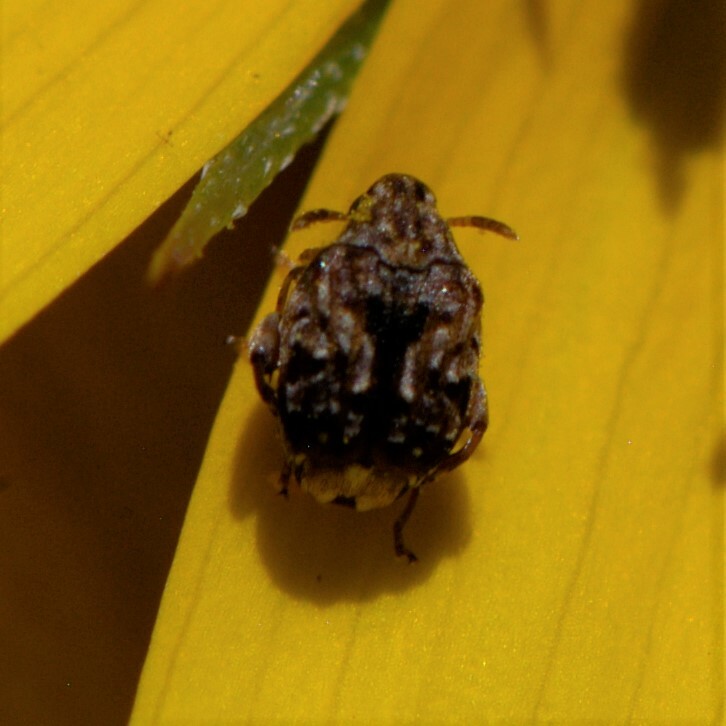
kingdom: Animalia
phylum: Arthropoda
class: Insecta
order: Coleoptera
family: Chrysomelidae
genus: Gibbobruchus
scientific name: Gibbobruchus mimus
